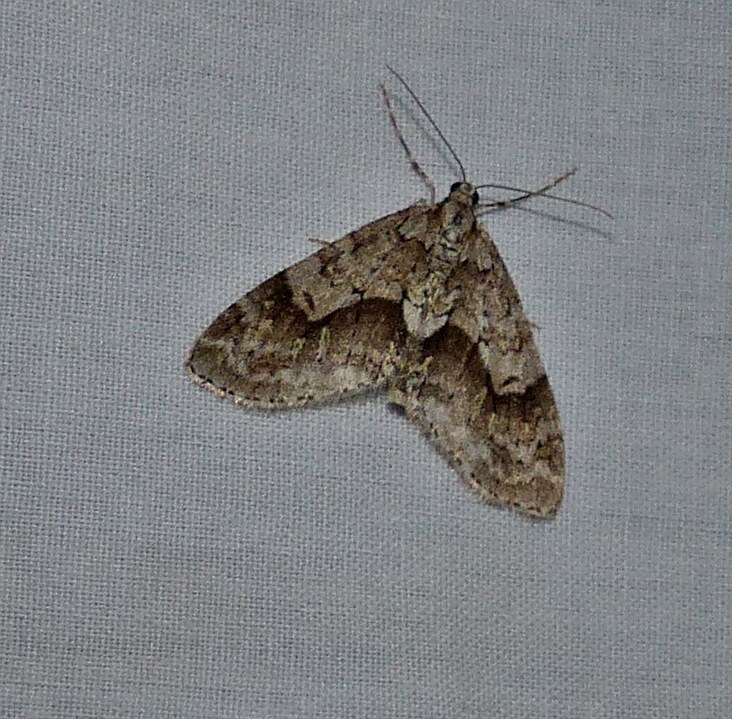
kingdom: Animalia
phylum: Arthropoda
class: Insecta
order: Lepidoptera
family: Geometridae
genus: Cladara
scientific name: Cladara limitaria
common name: Mottled gray carpet
